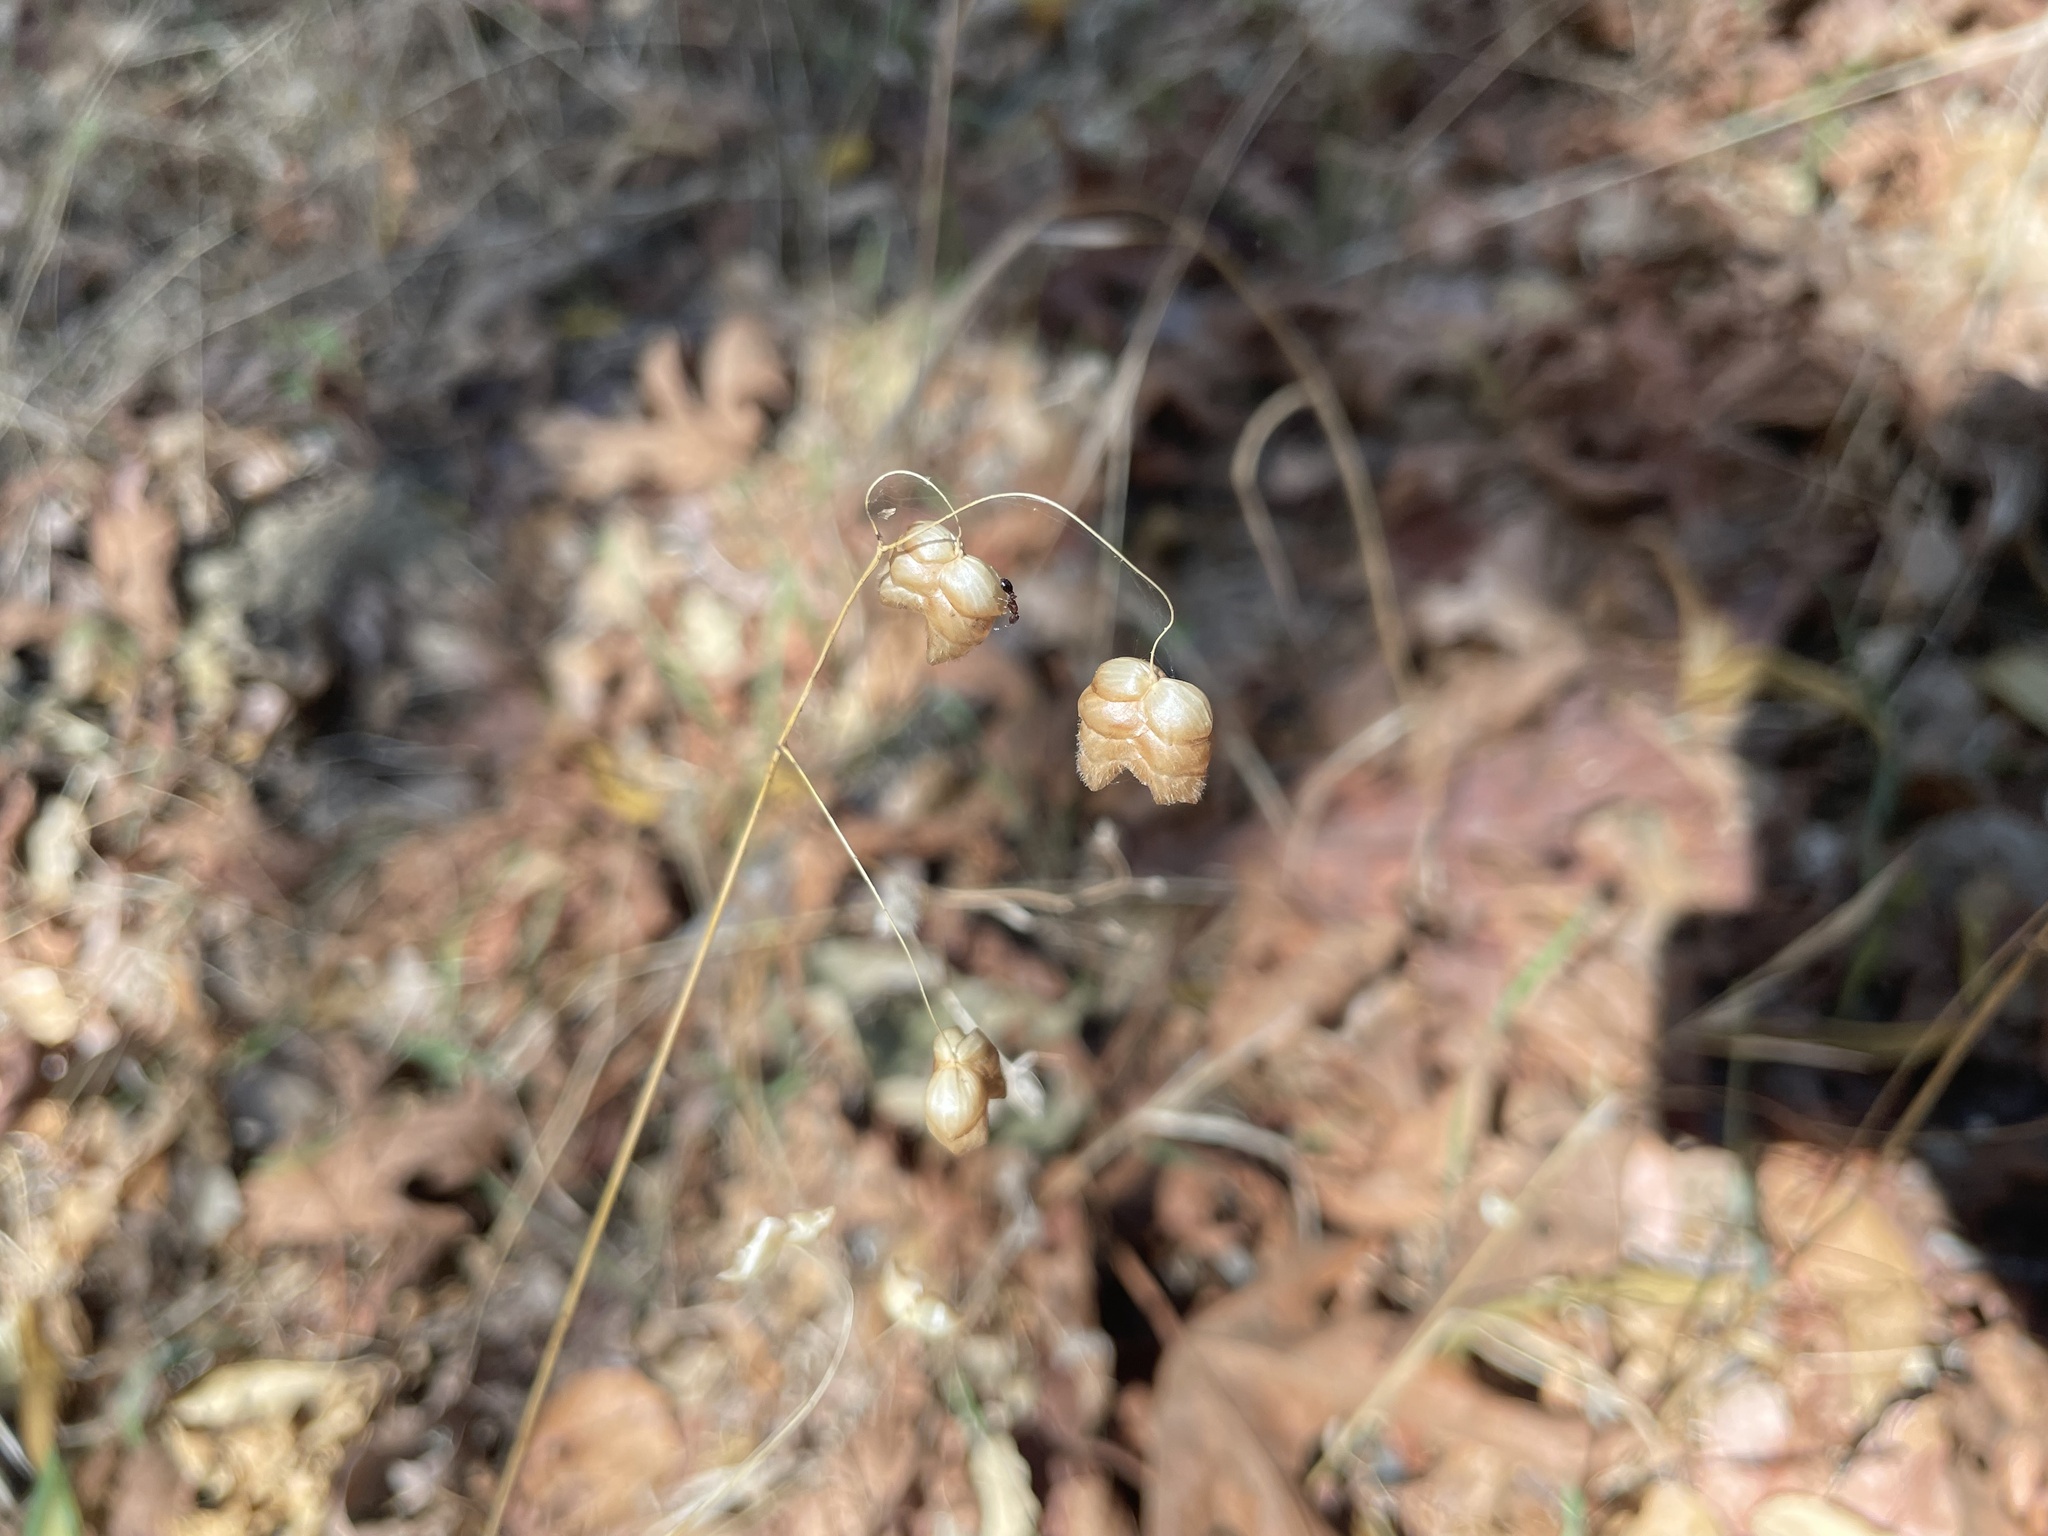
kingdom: Plantae
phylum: Tracheophyta
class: Liliopsida
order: Poales
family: Poaceae
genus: Briza
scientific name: Briza maxima
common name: Big quakinggrass
